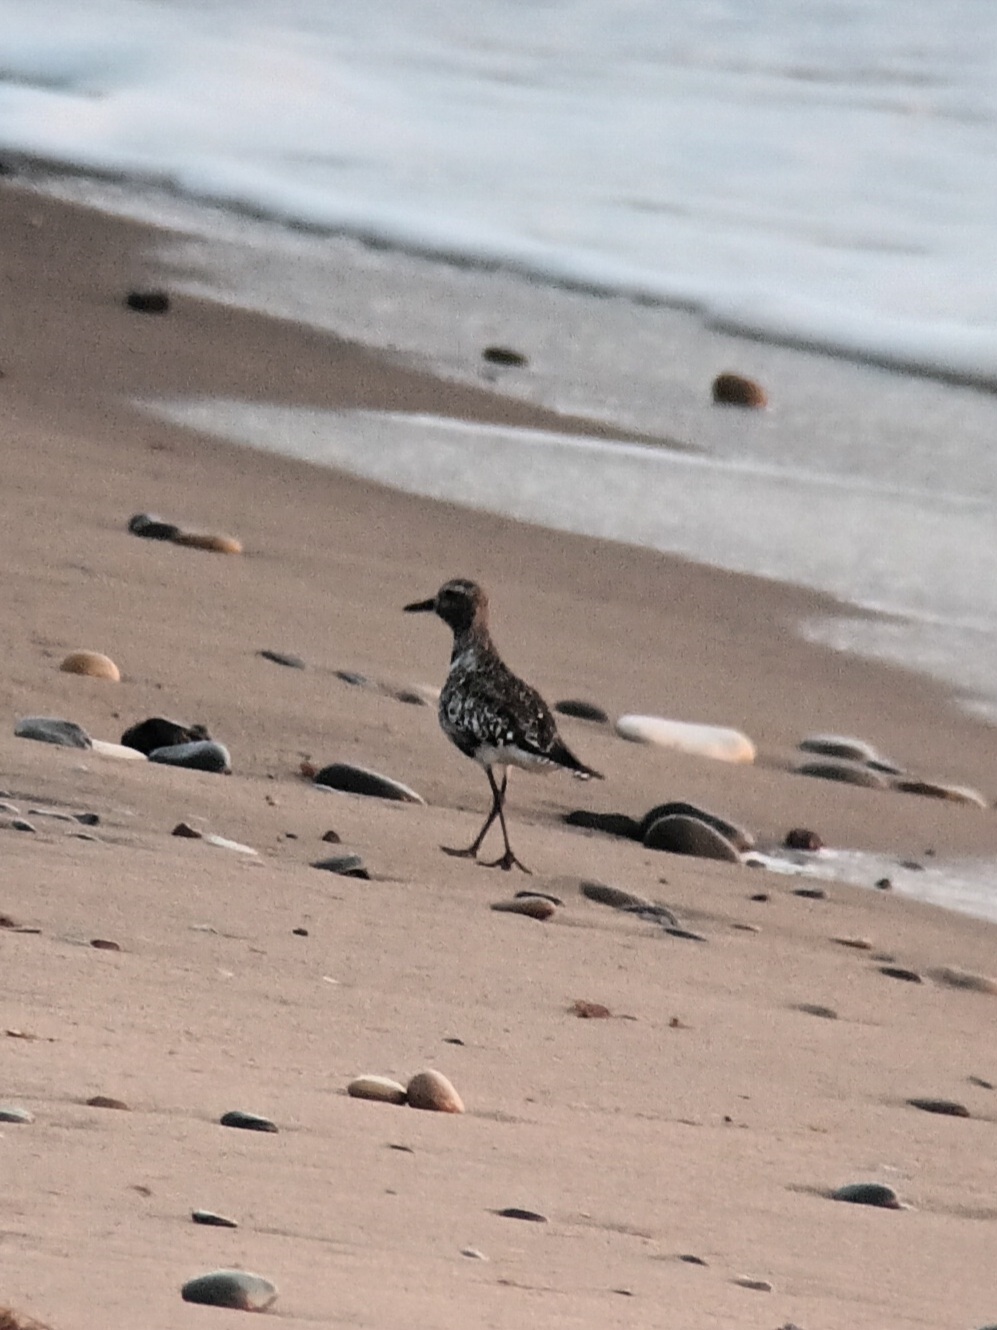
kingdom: Animalia
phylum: Chordata
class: Aves
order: Charadriiformes
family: Charadriidae
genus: Pluvialis
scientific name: Pluvialis squatarola
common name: Grey plover
